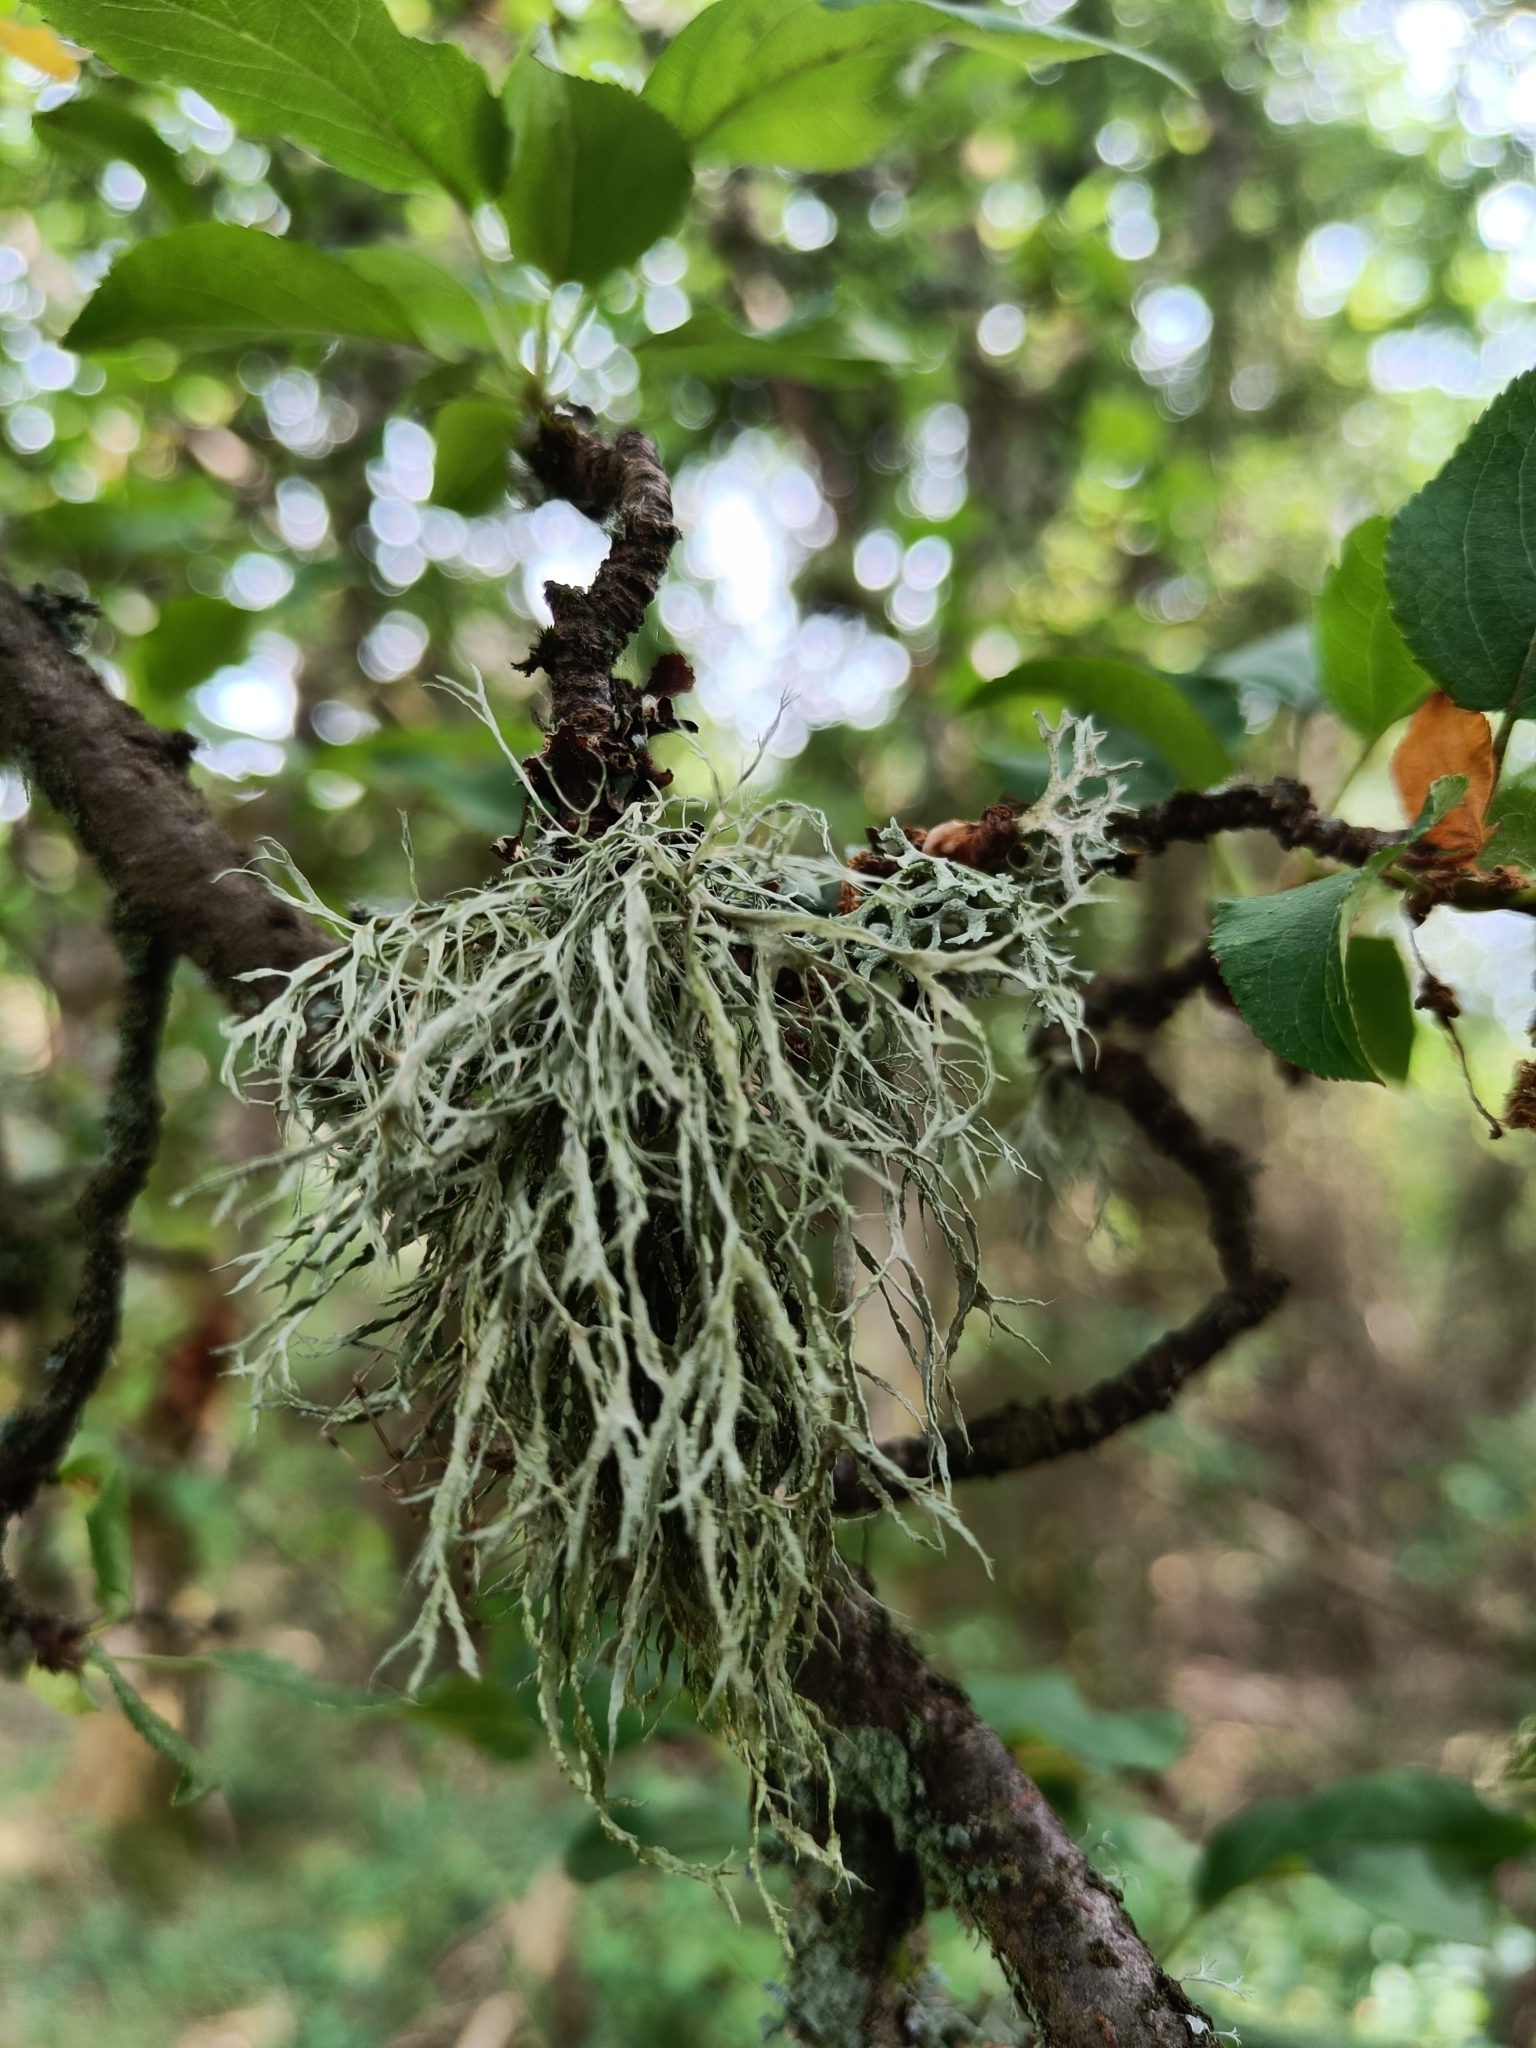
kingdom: Fungi
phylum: Ascomycota
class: Lecanoromycetes
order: Lecanorales
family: Ramalinaceae
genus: Ramalina
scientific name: Ramalina farinacea
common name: Farinose cartilage lichen
